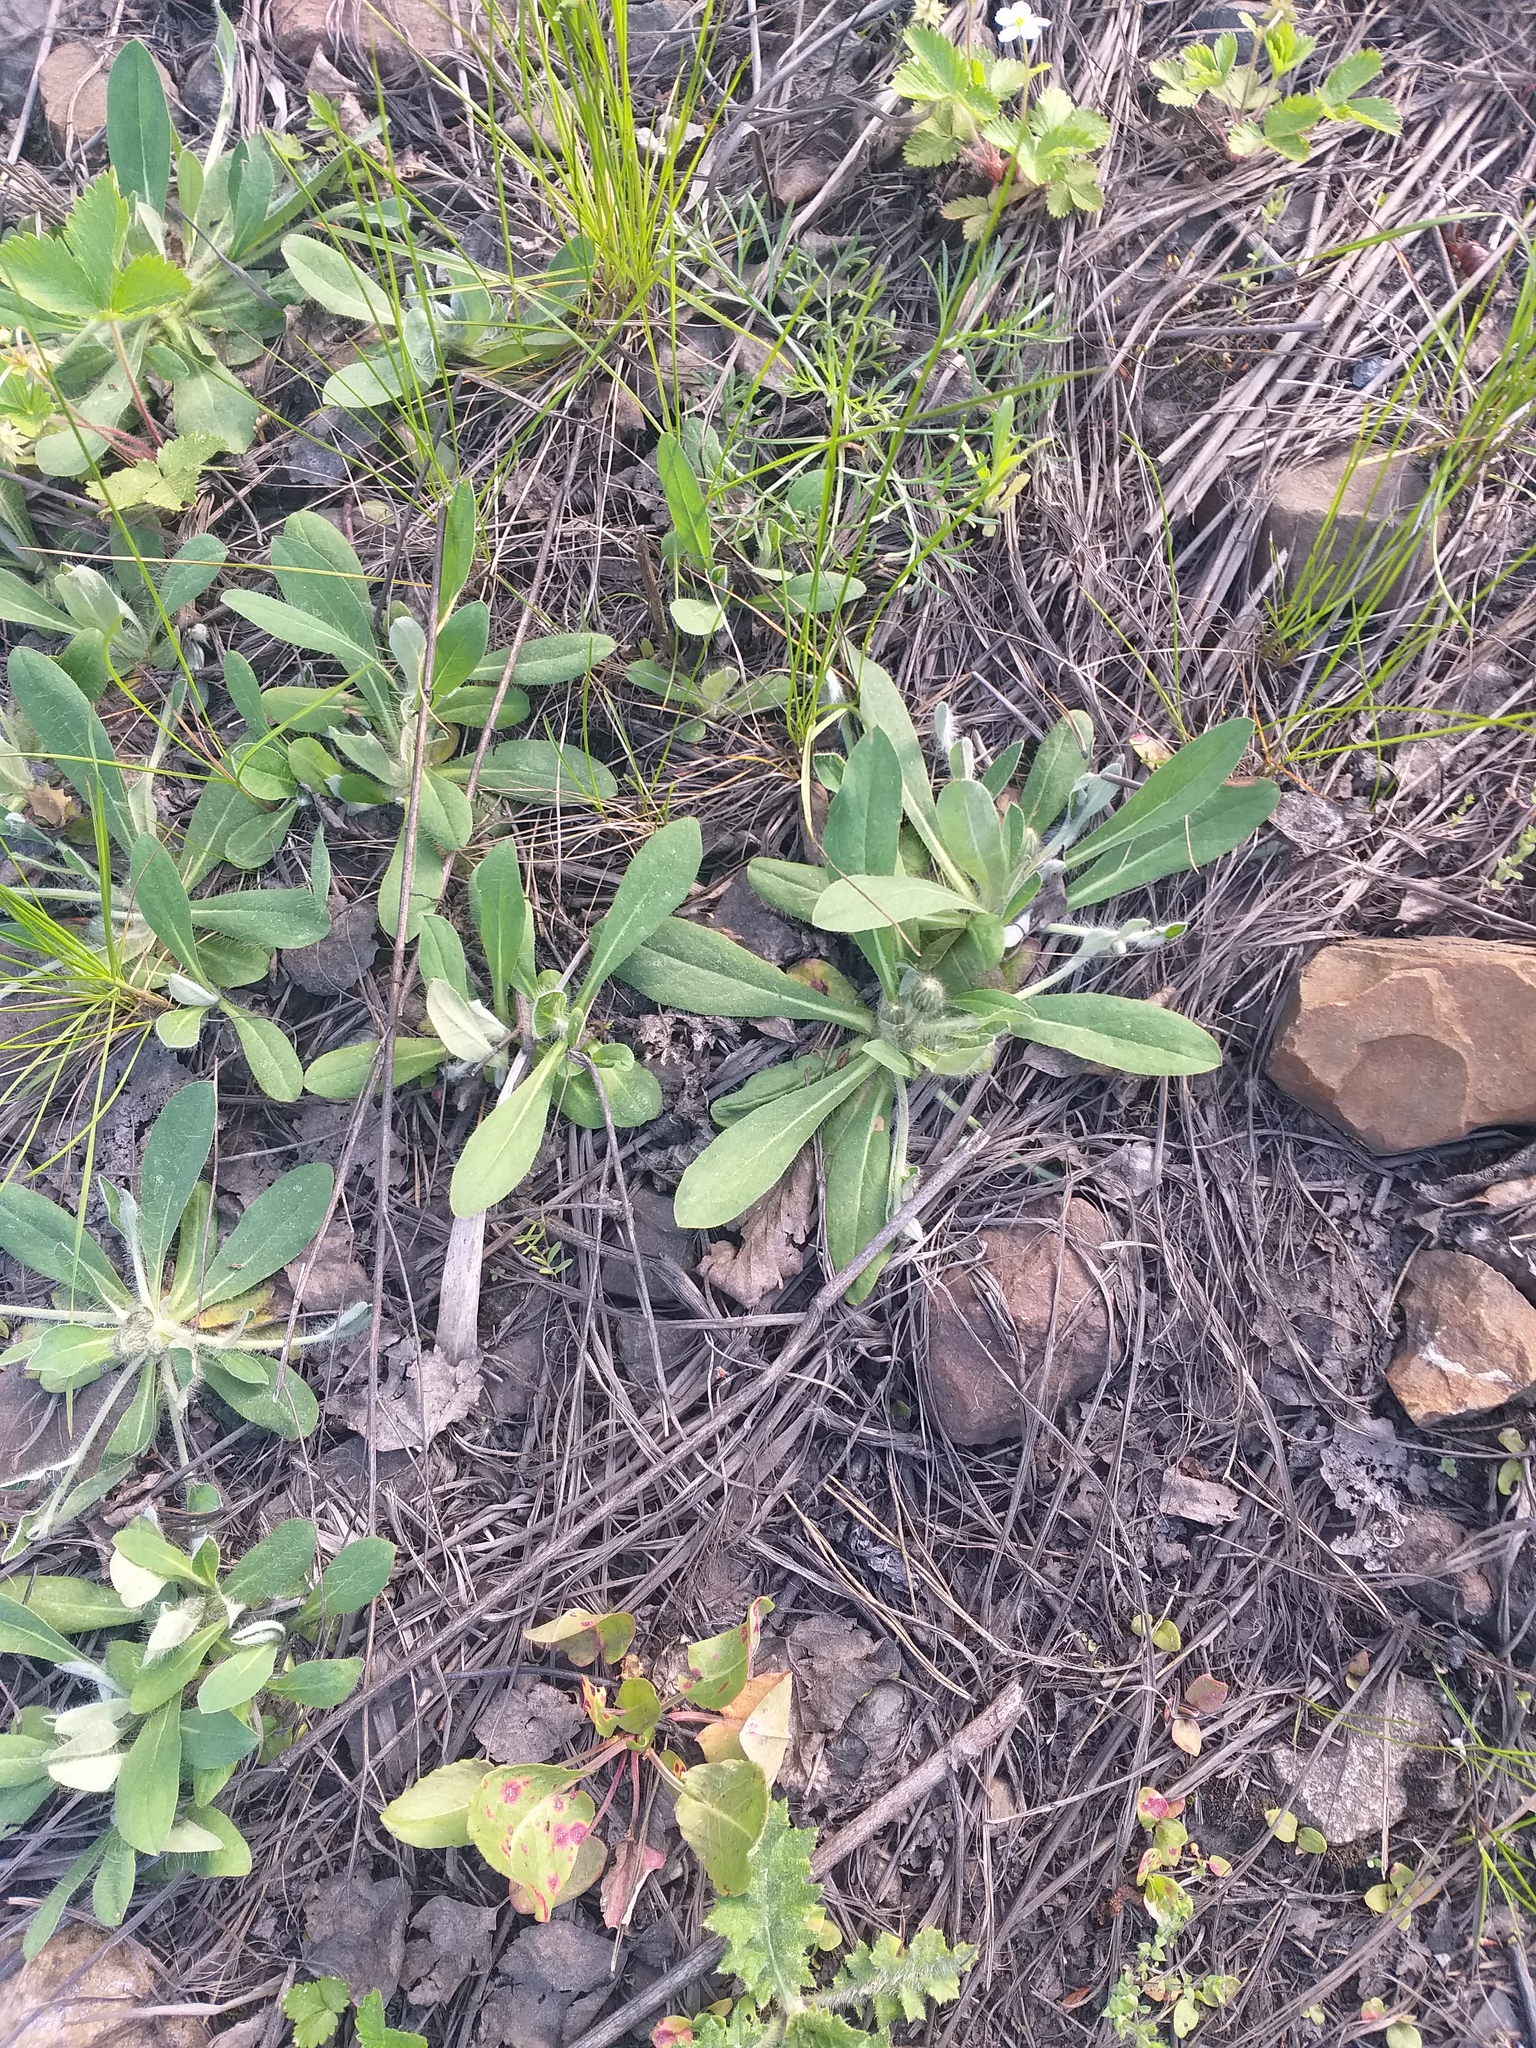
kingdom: Plantae
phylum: Tracheophyta
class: Magnoliopsida
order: Asterales
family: Asteraceae
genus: Pilosella
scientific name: Pilosella officinarum
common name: Mouse-ear hawkweed
